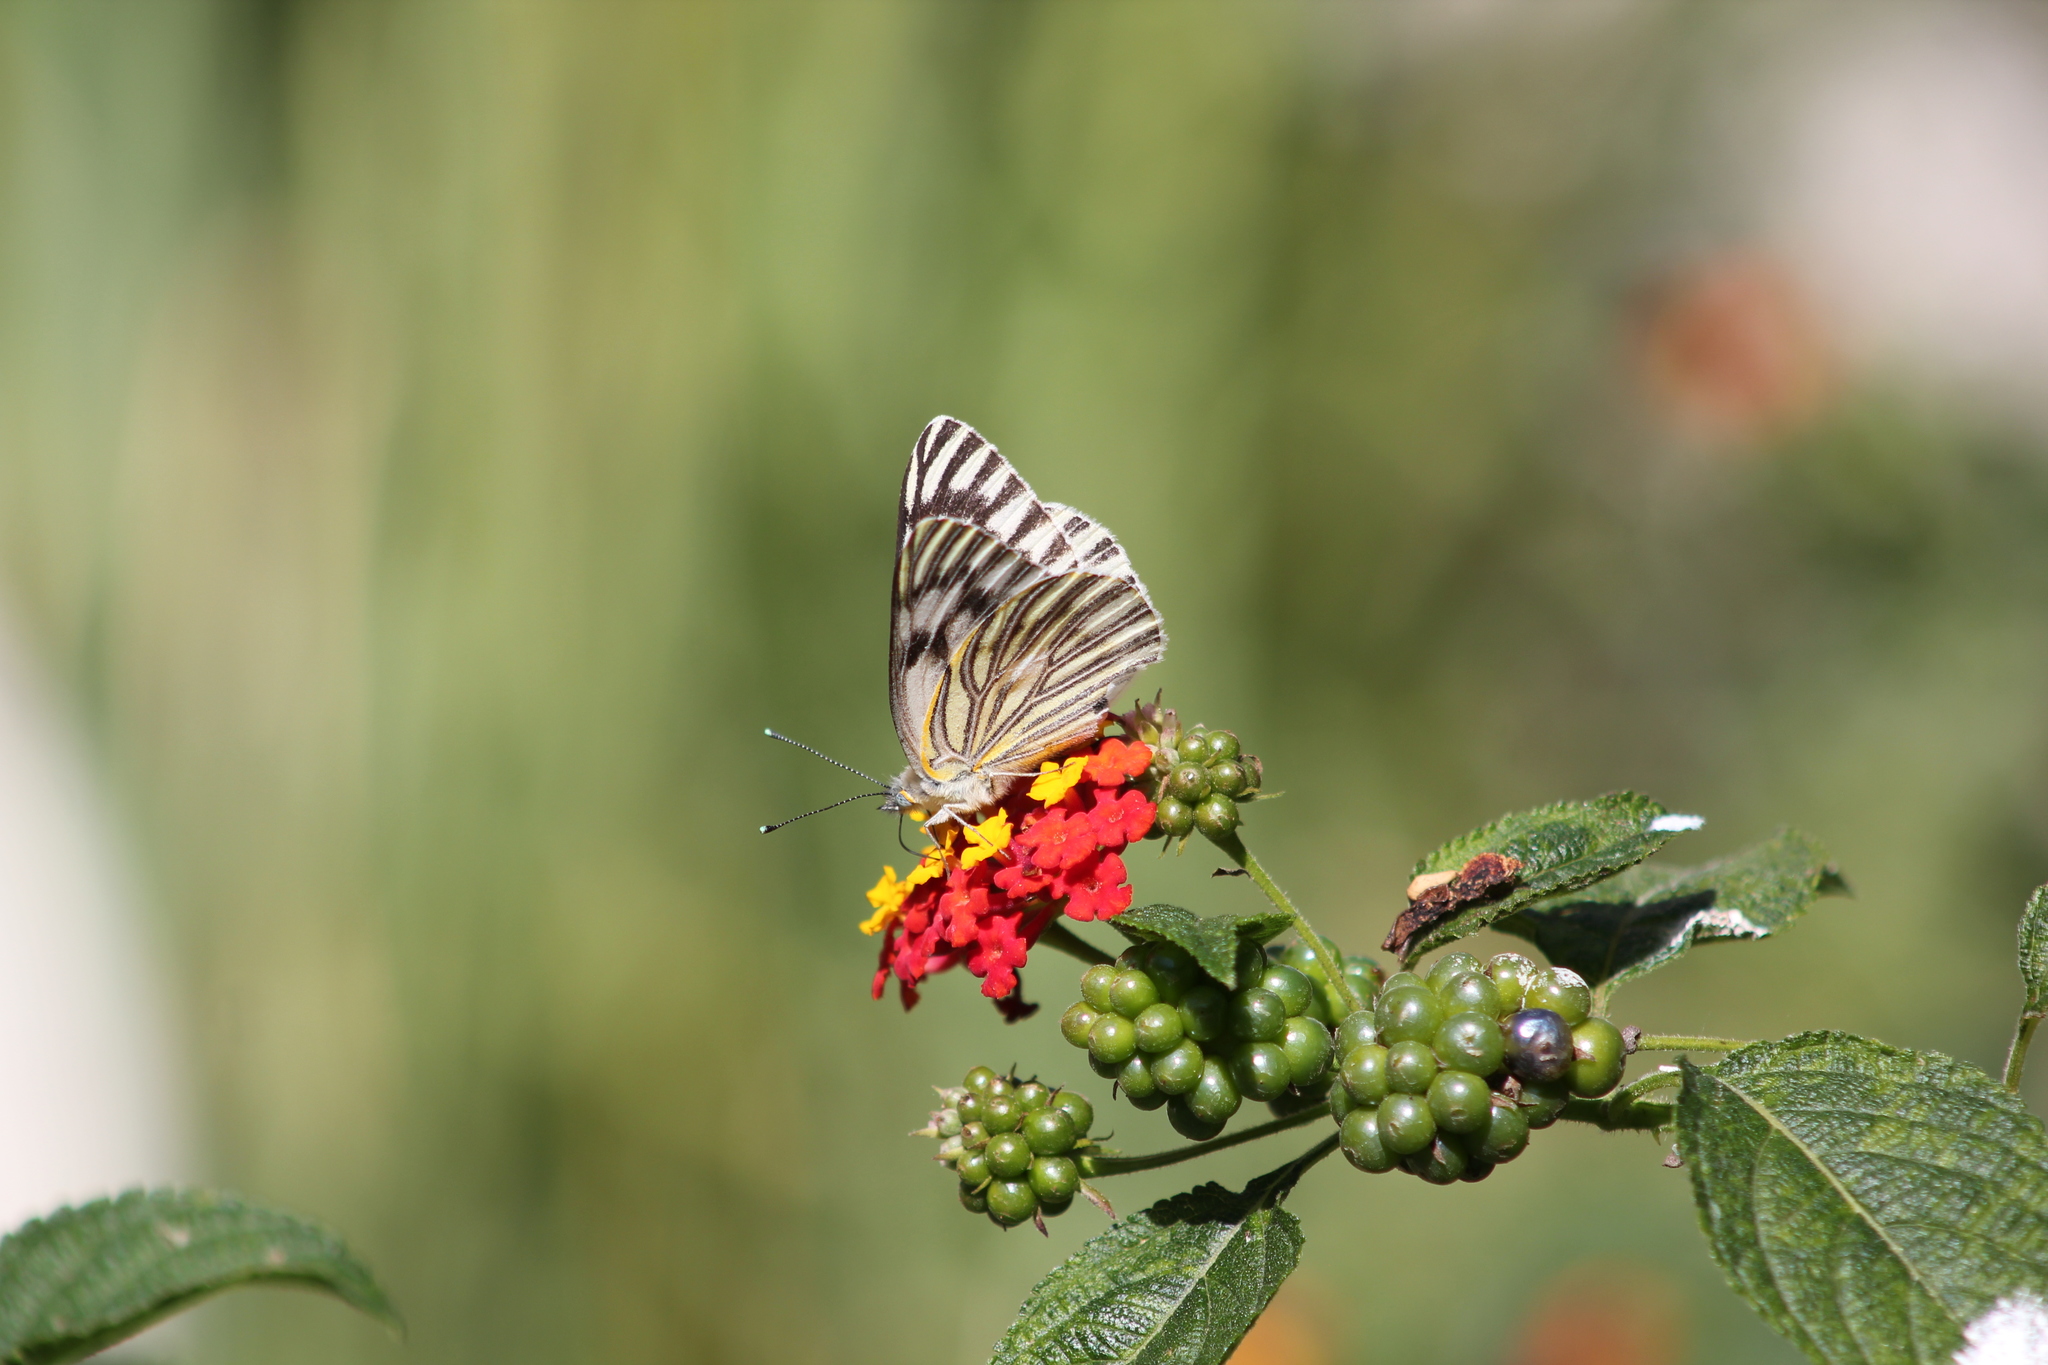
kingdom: Animalia
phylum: Arthropoda
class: Insecta
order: Lepidoptera
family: Pieridae
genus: Tatochila
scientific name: Tatochila autodice
